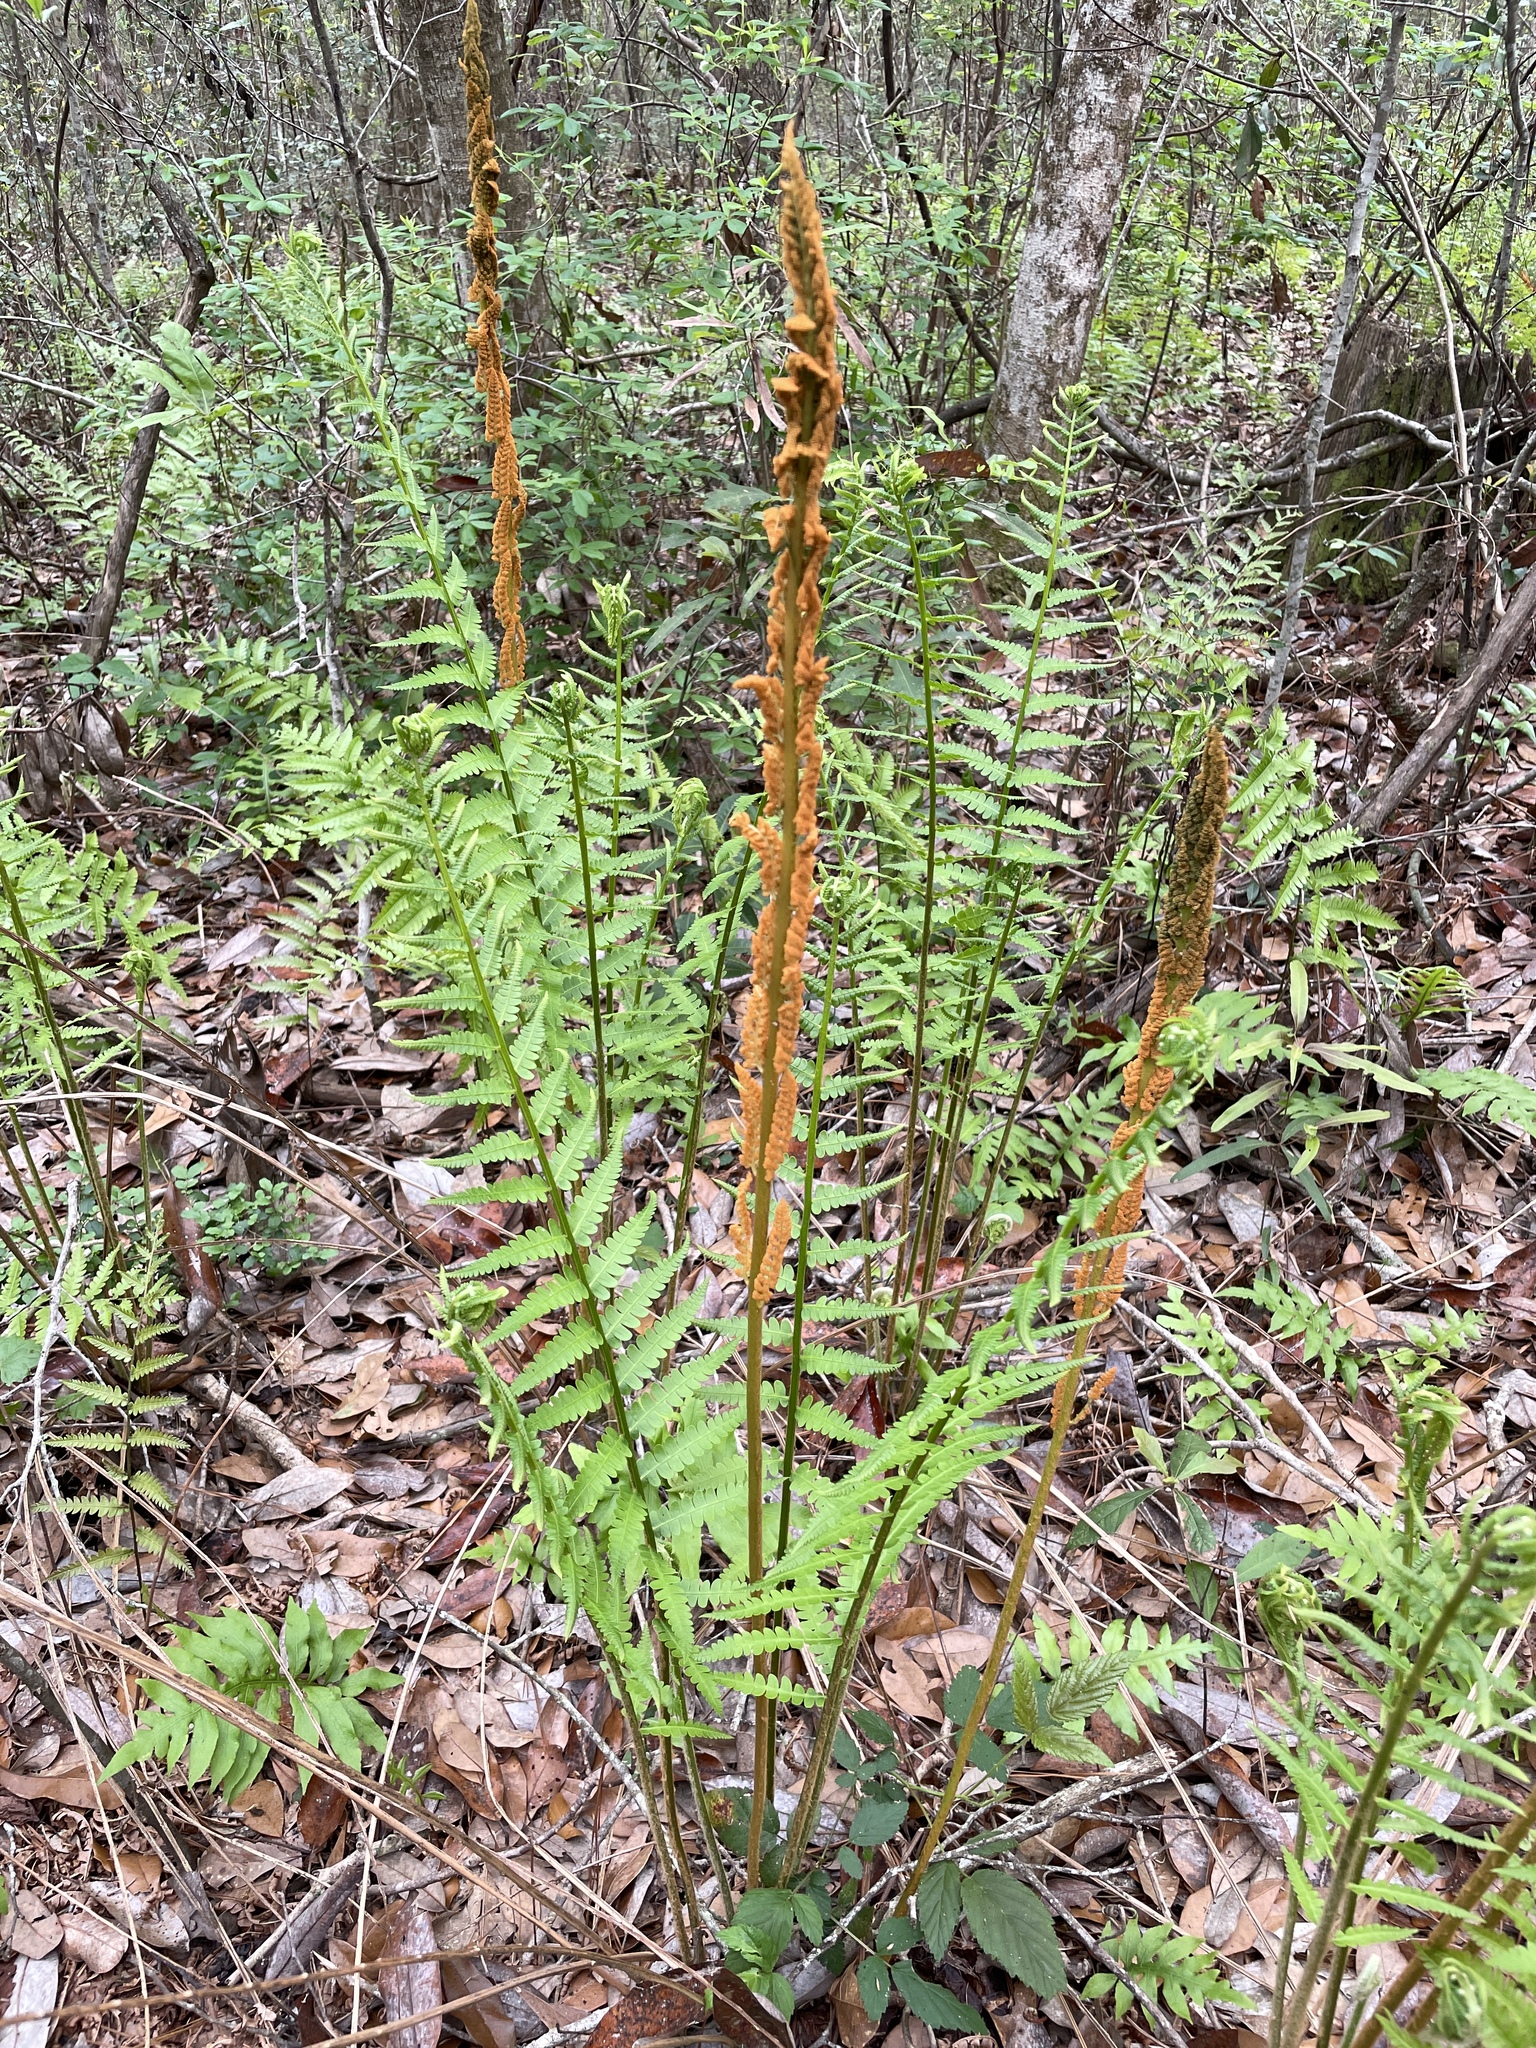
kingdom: Plantae
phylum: Tracheophyta
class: Polypodiopsida
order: Osmundales
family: Osmundaceae
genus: Osmundastrum
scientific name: Osmundastrum cinnamomeum
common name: Cinnamon fern
